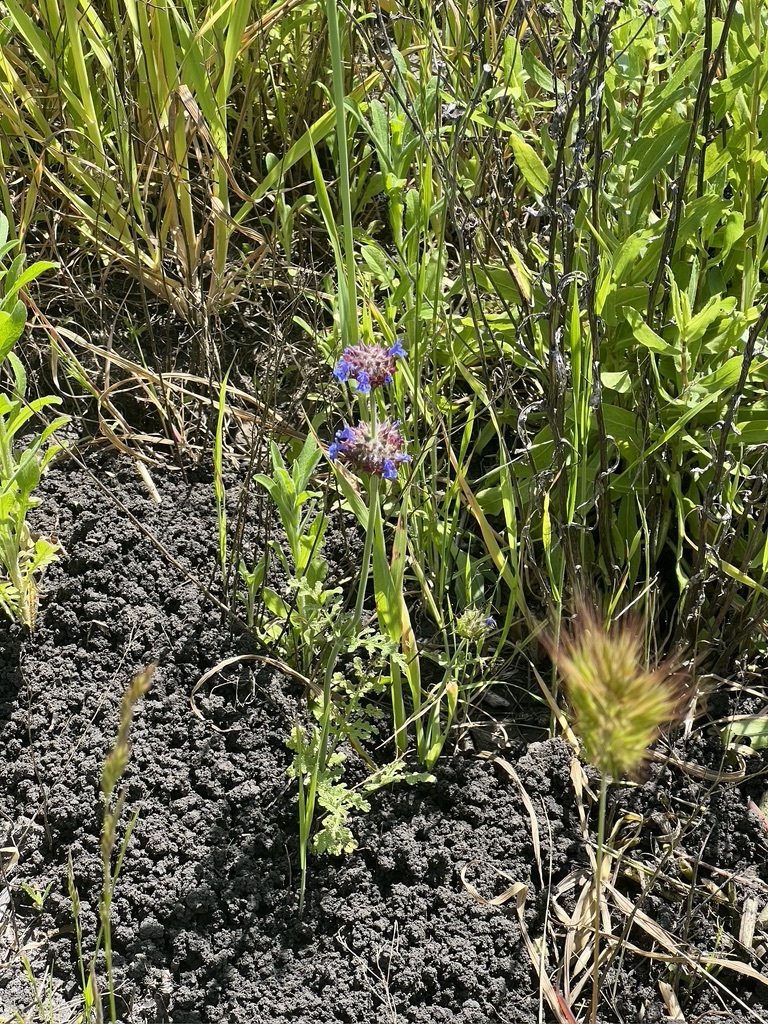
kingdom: Plantae
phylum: Tracheophyta
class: Magnoliopsida
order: Lamiales
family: Lamiaceae
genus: Salvia
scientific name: Salvia columbariae
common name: Chia
